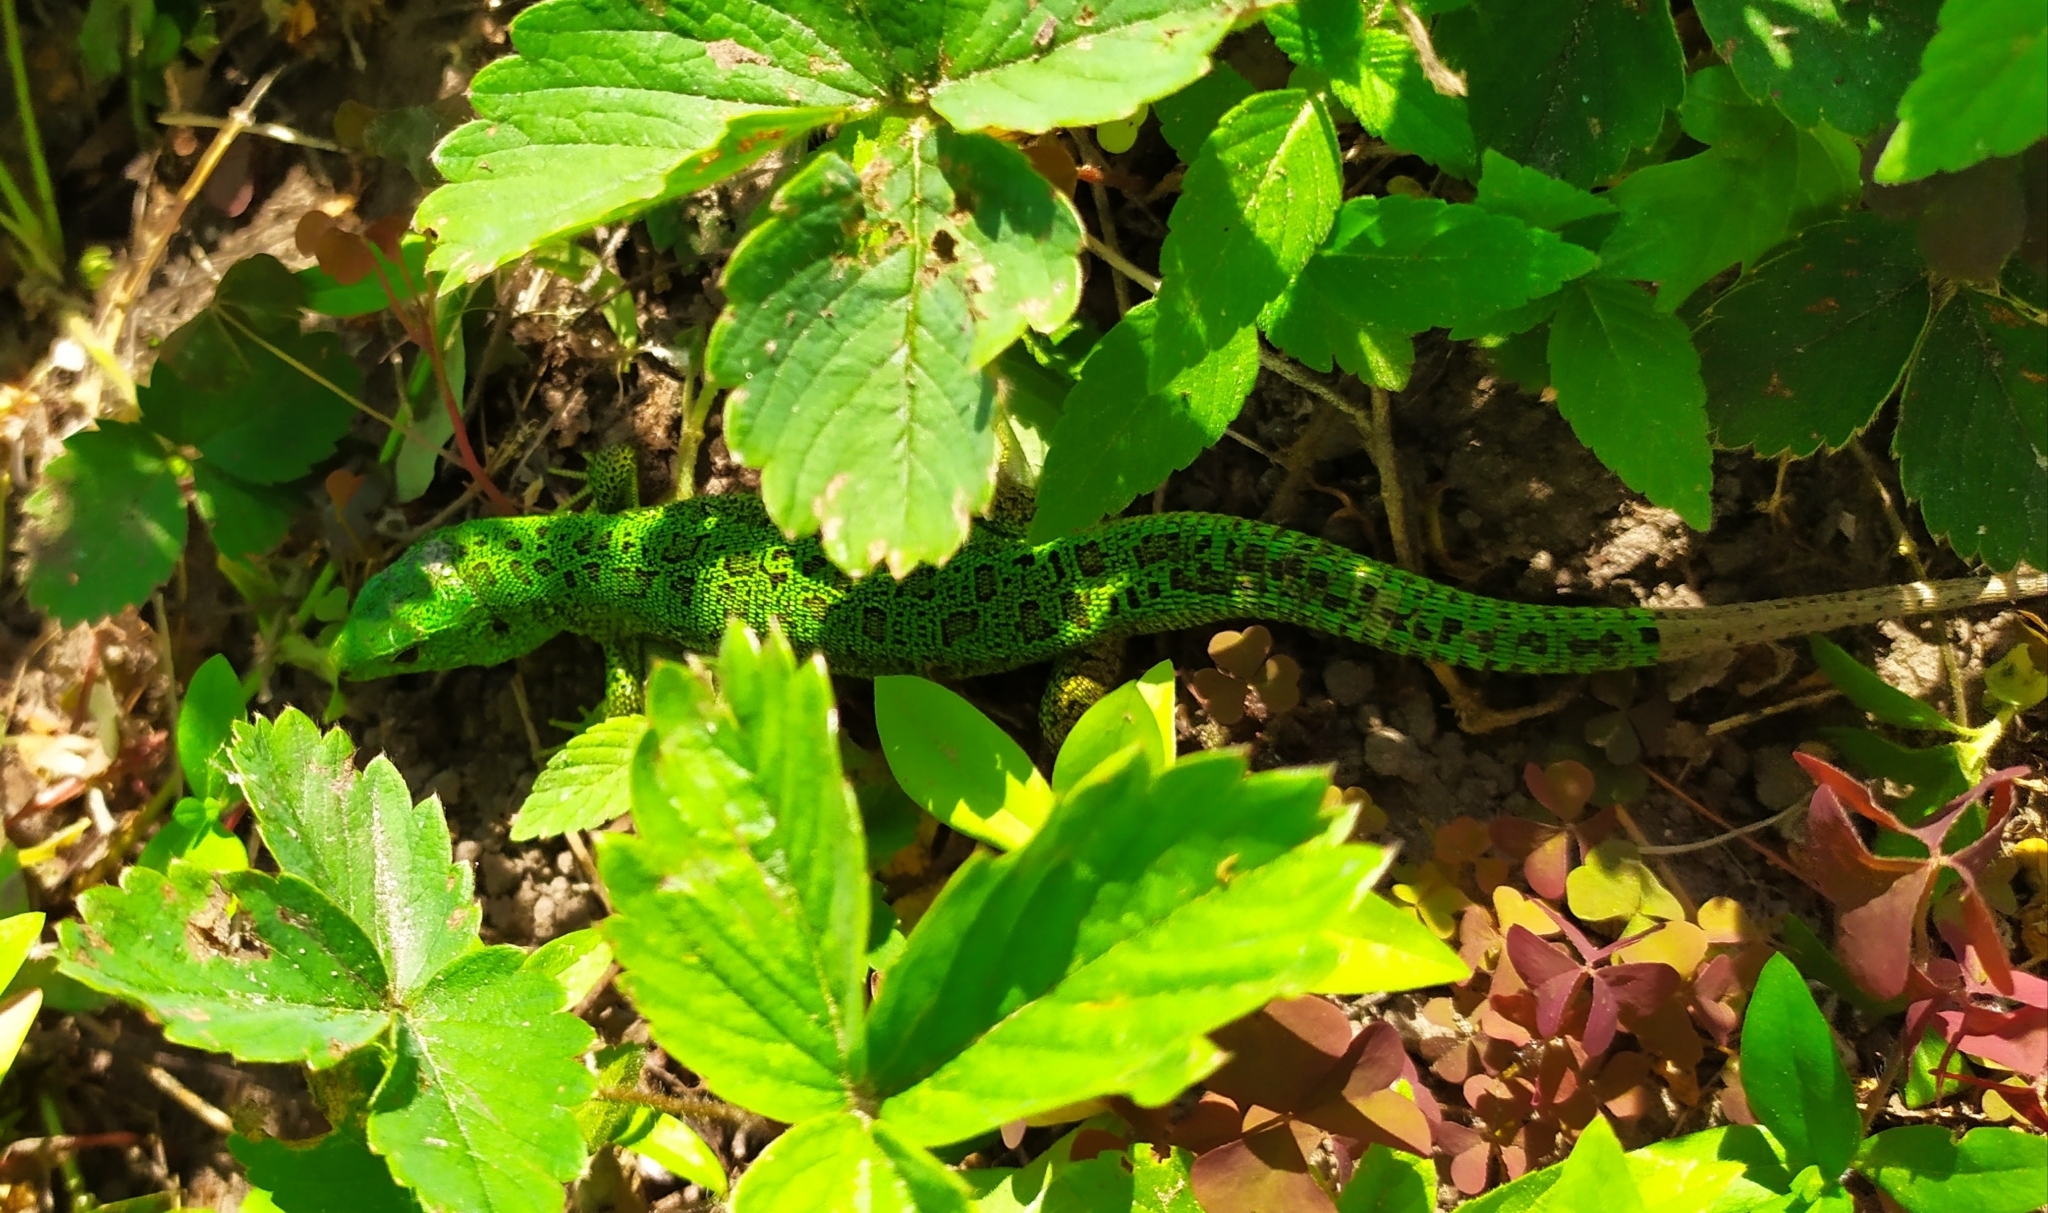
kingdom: Animalia
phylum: Chordata
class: Squamata
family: Lacertidae
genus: Lacerta
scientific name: Lacerta agilis
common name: Sand lizard
